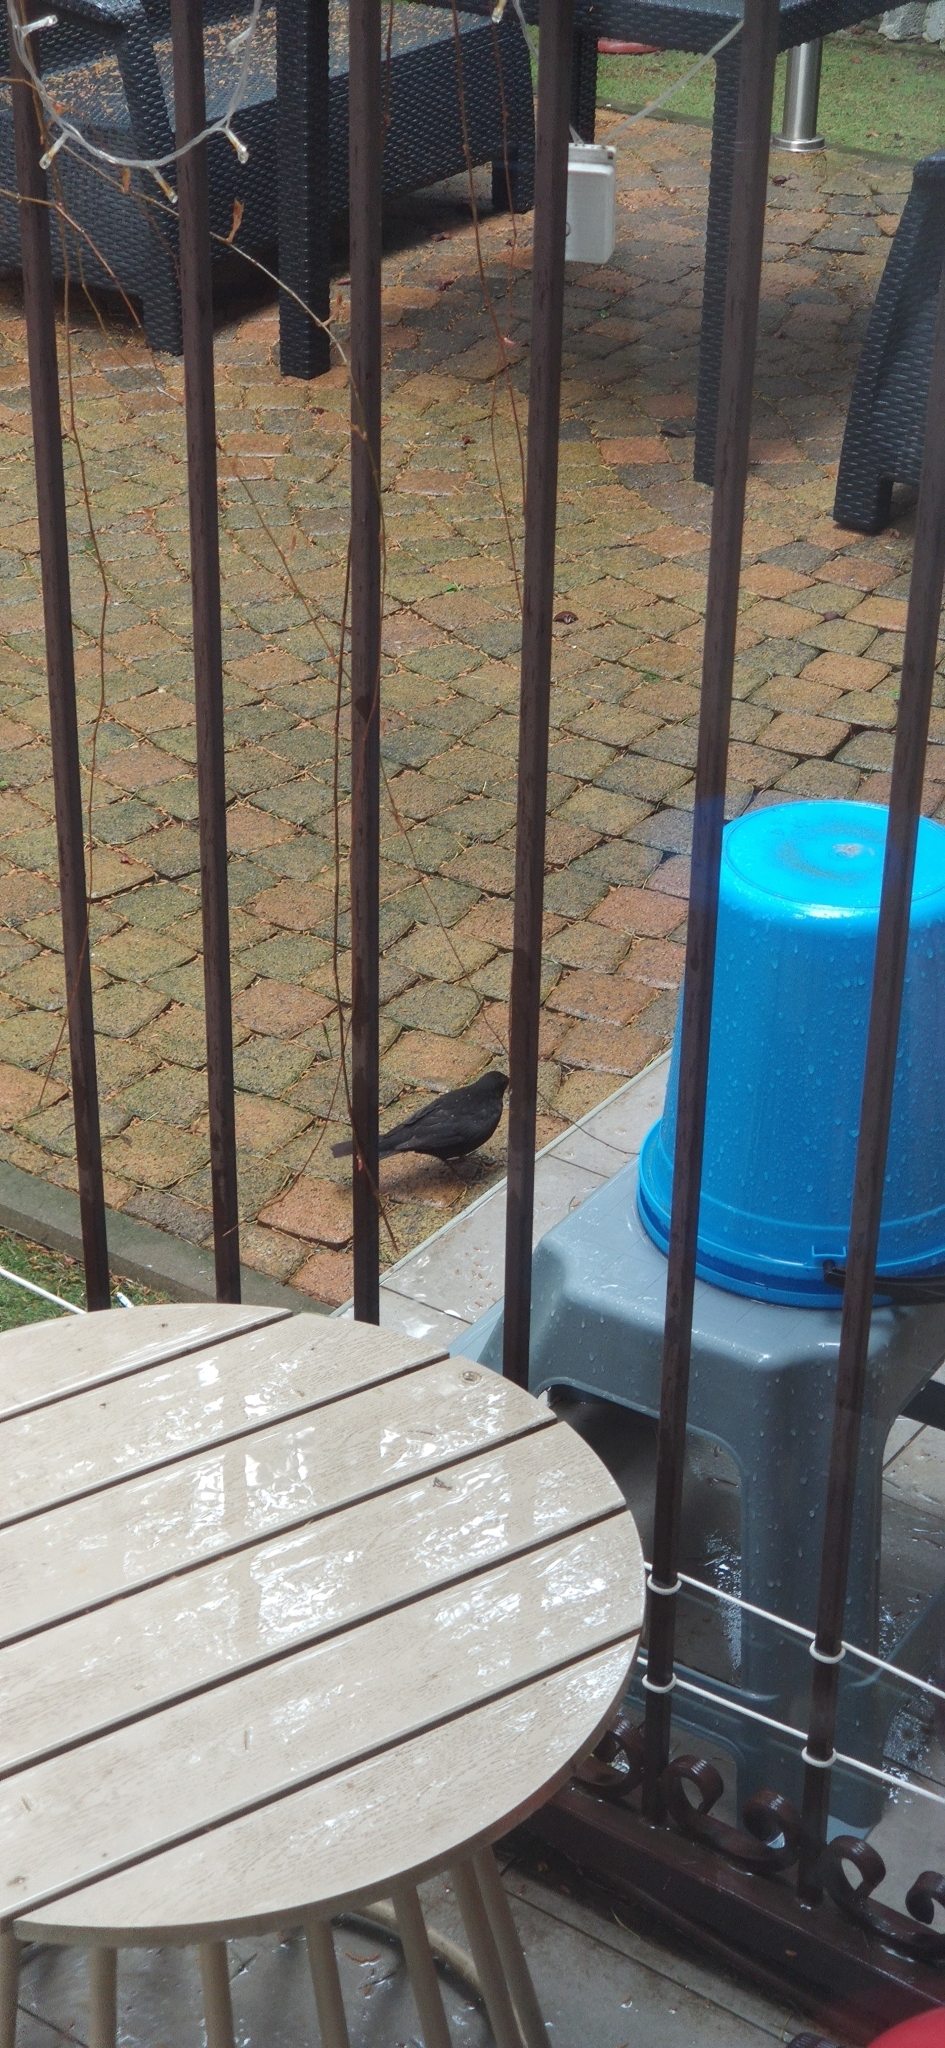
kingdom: Animalia
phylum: Chordata
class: Aves
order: Passeriformes
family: Turdidae
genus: Turdus
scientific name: Turdus merula
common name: Common blackbird
